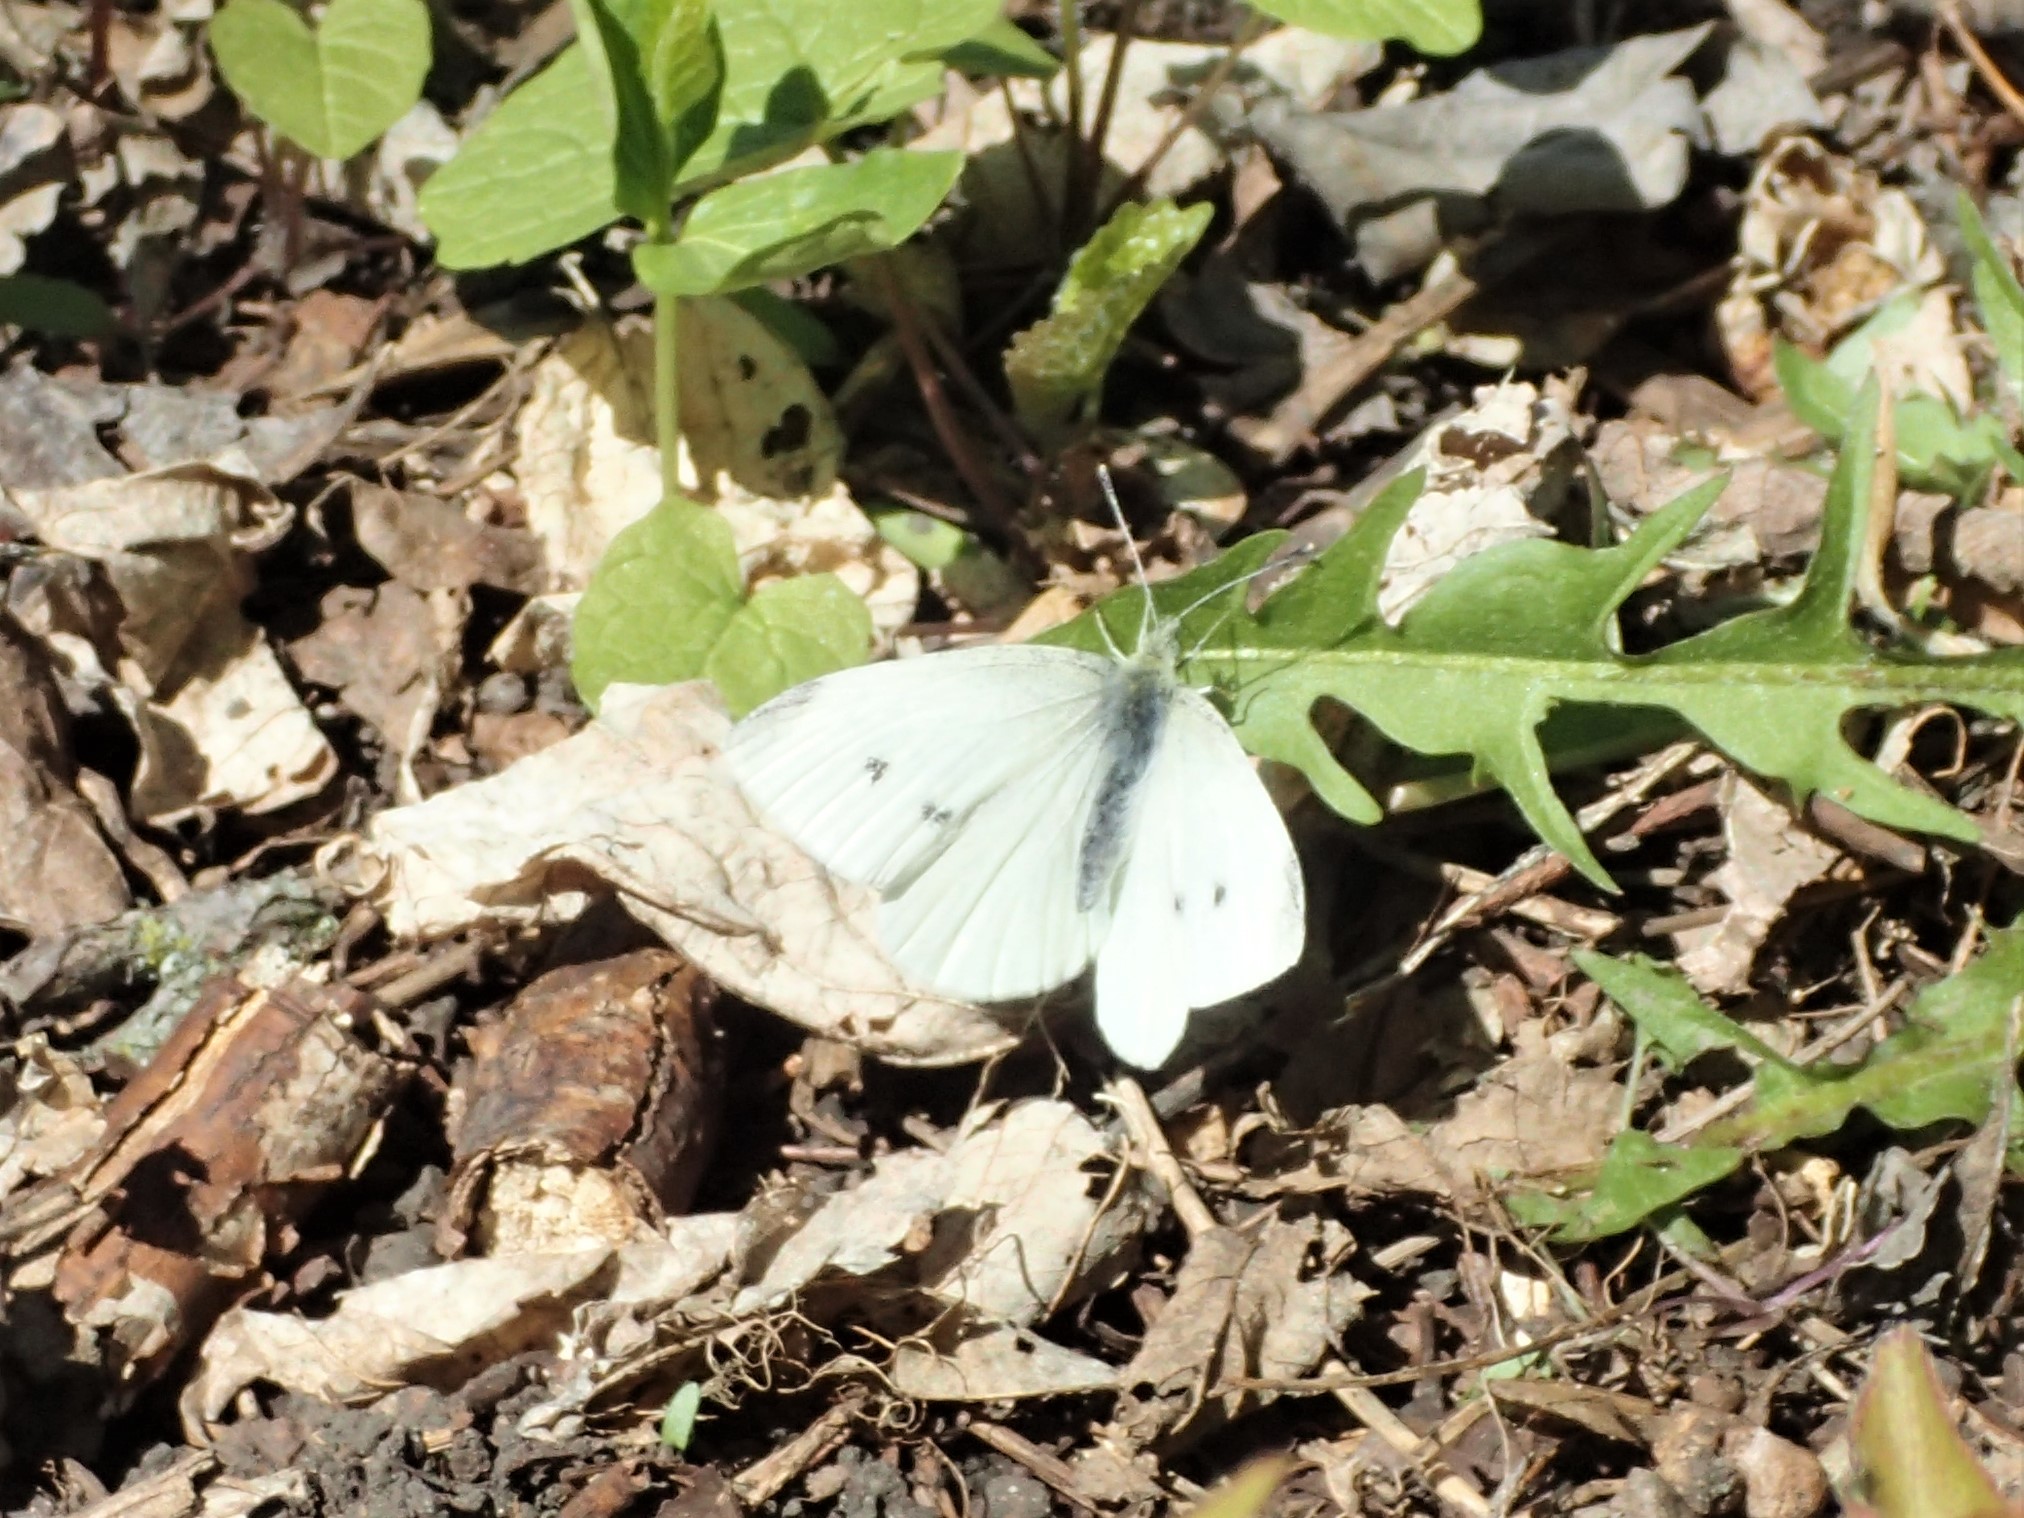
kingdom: Animalia
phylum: Arthropoda
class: Insecta
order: Lepidoptera
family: Pieridae
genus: Pieris
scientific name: Pieris rapae
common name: Small white
